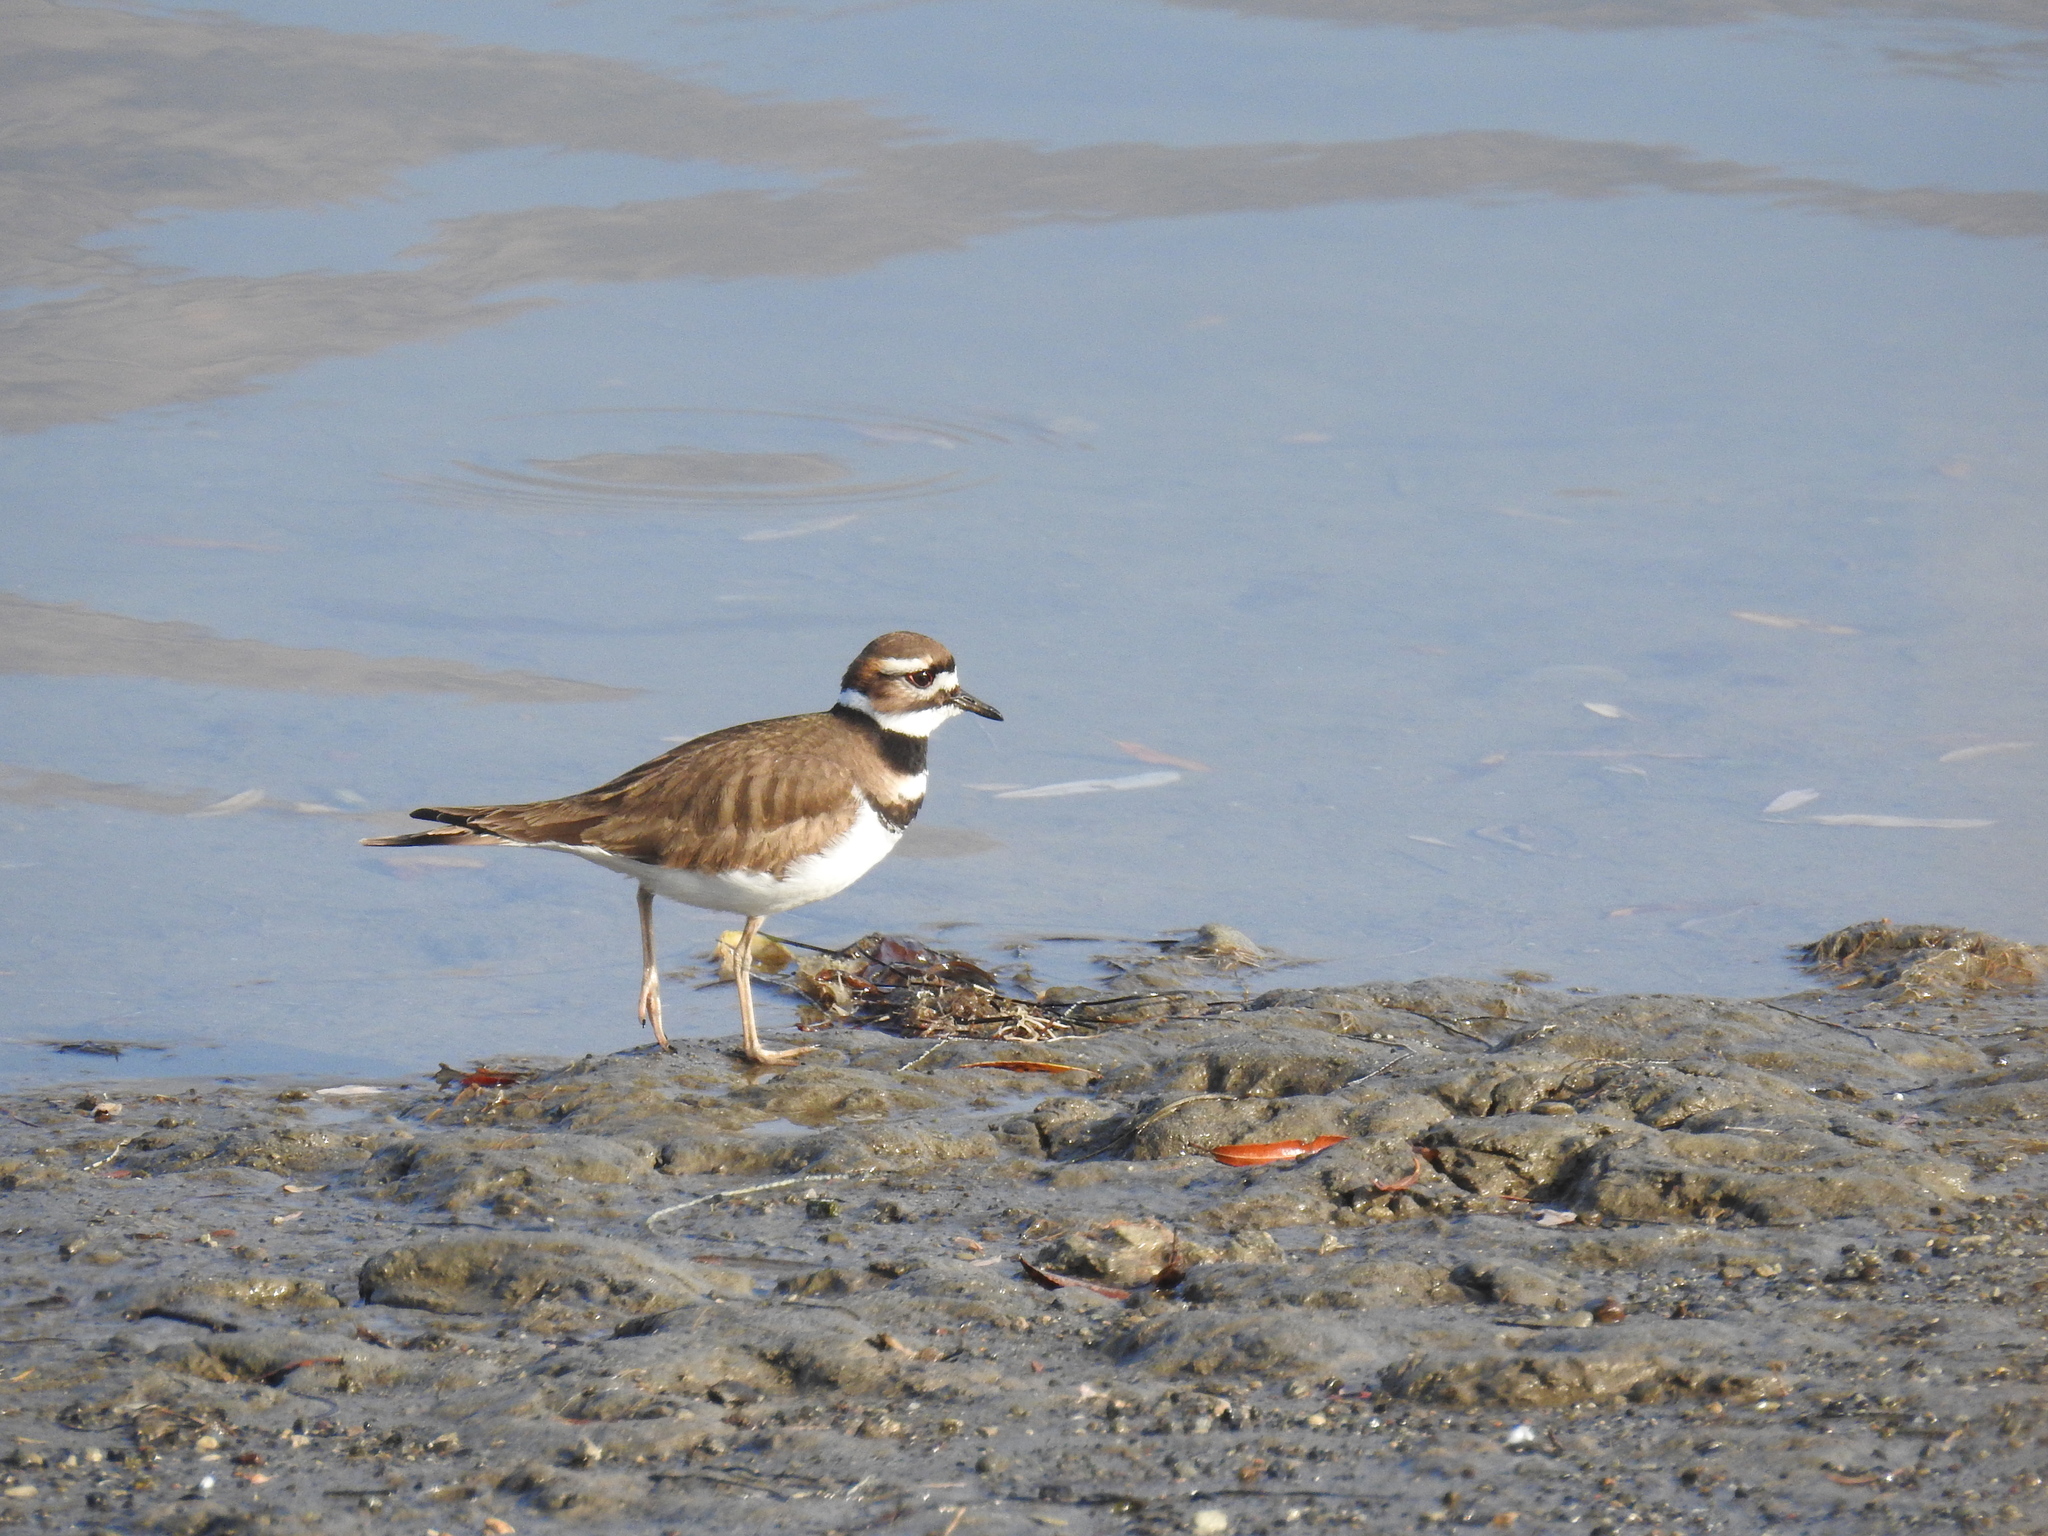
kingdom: Animalia
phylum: Chordata
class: Aves
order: Charadriiformes
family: Charadriidae
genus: Charadrius
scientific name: Charadrius vociferus
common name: Killdeer
